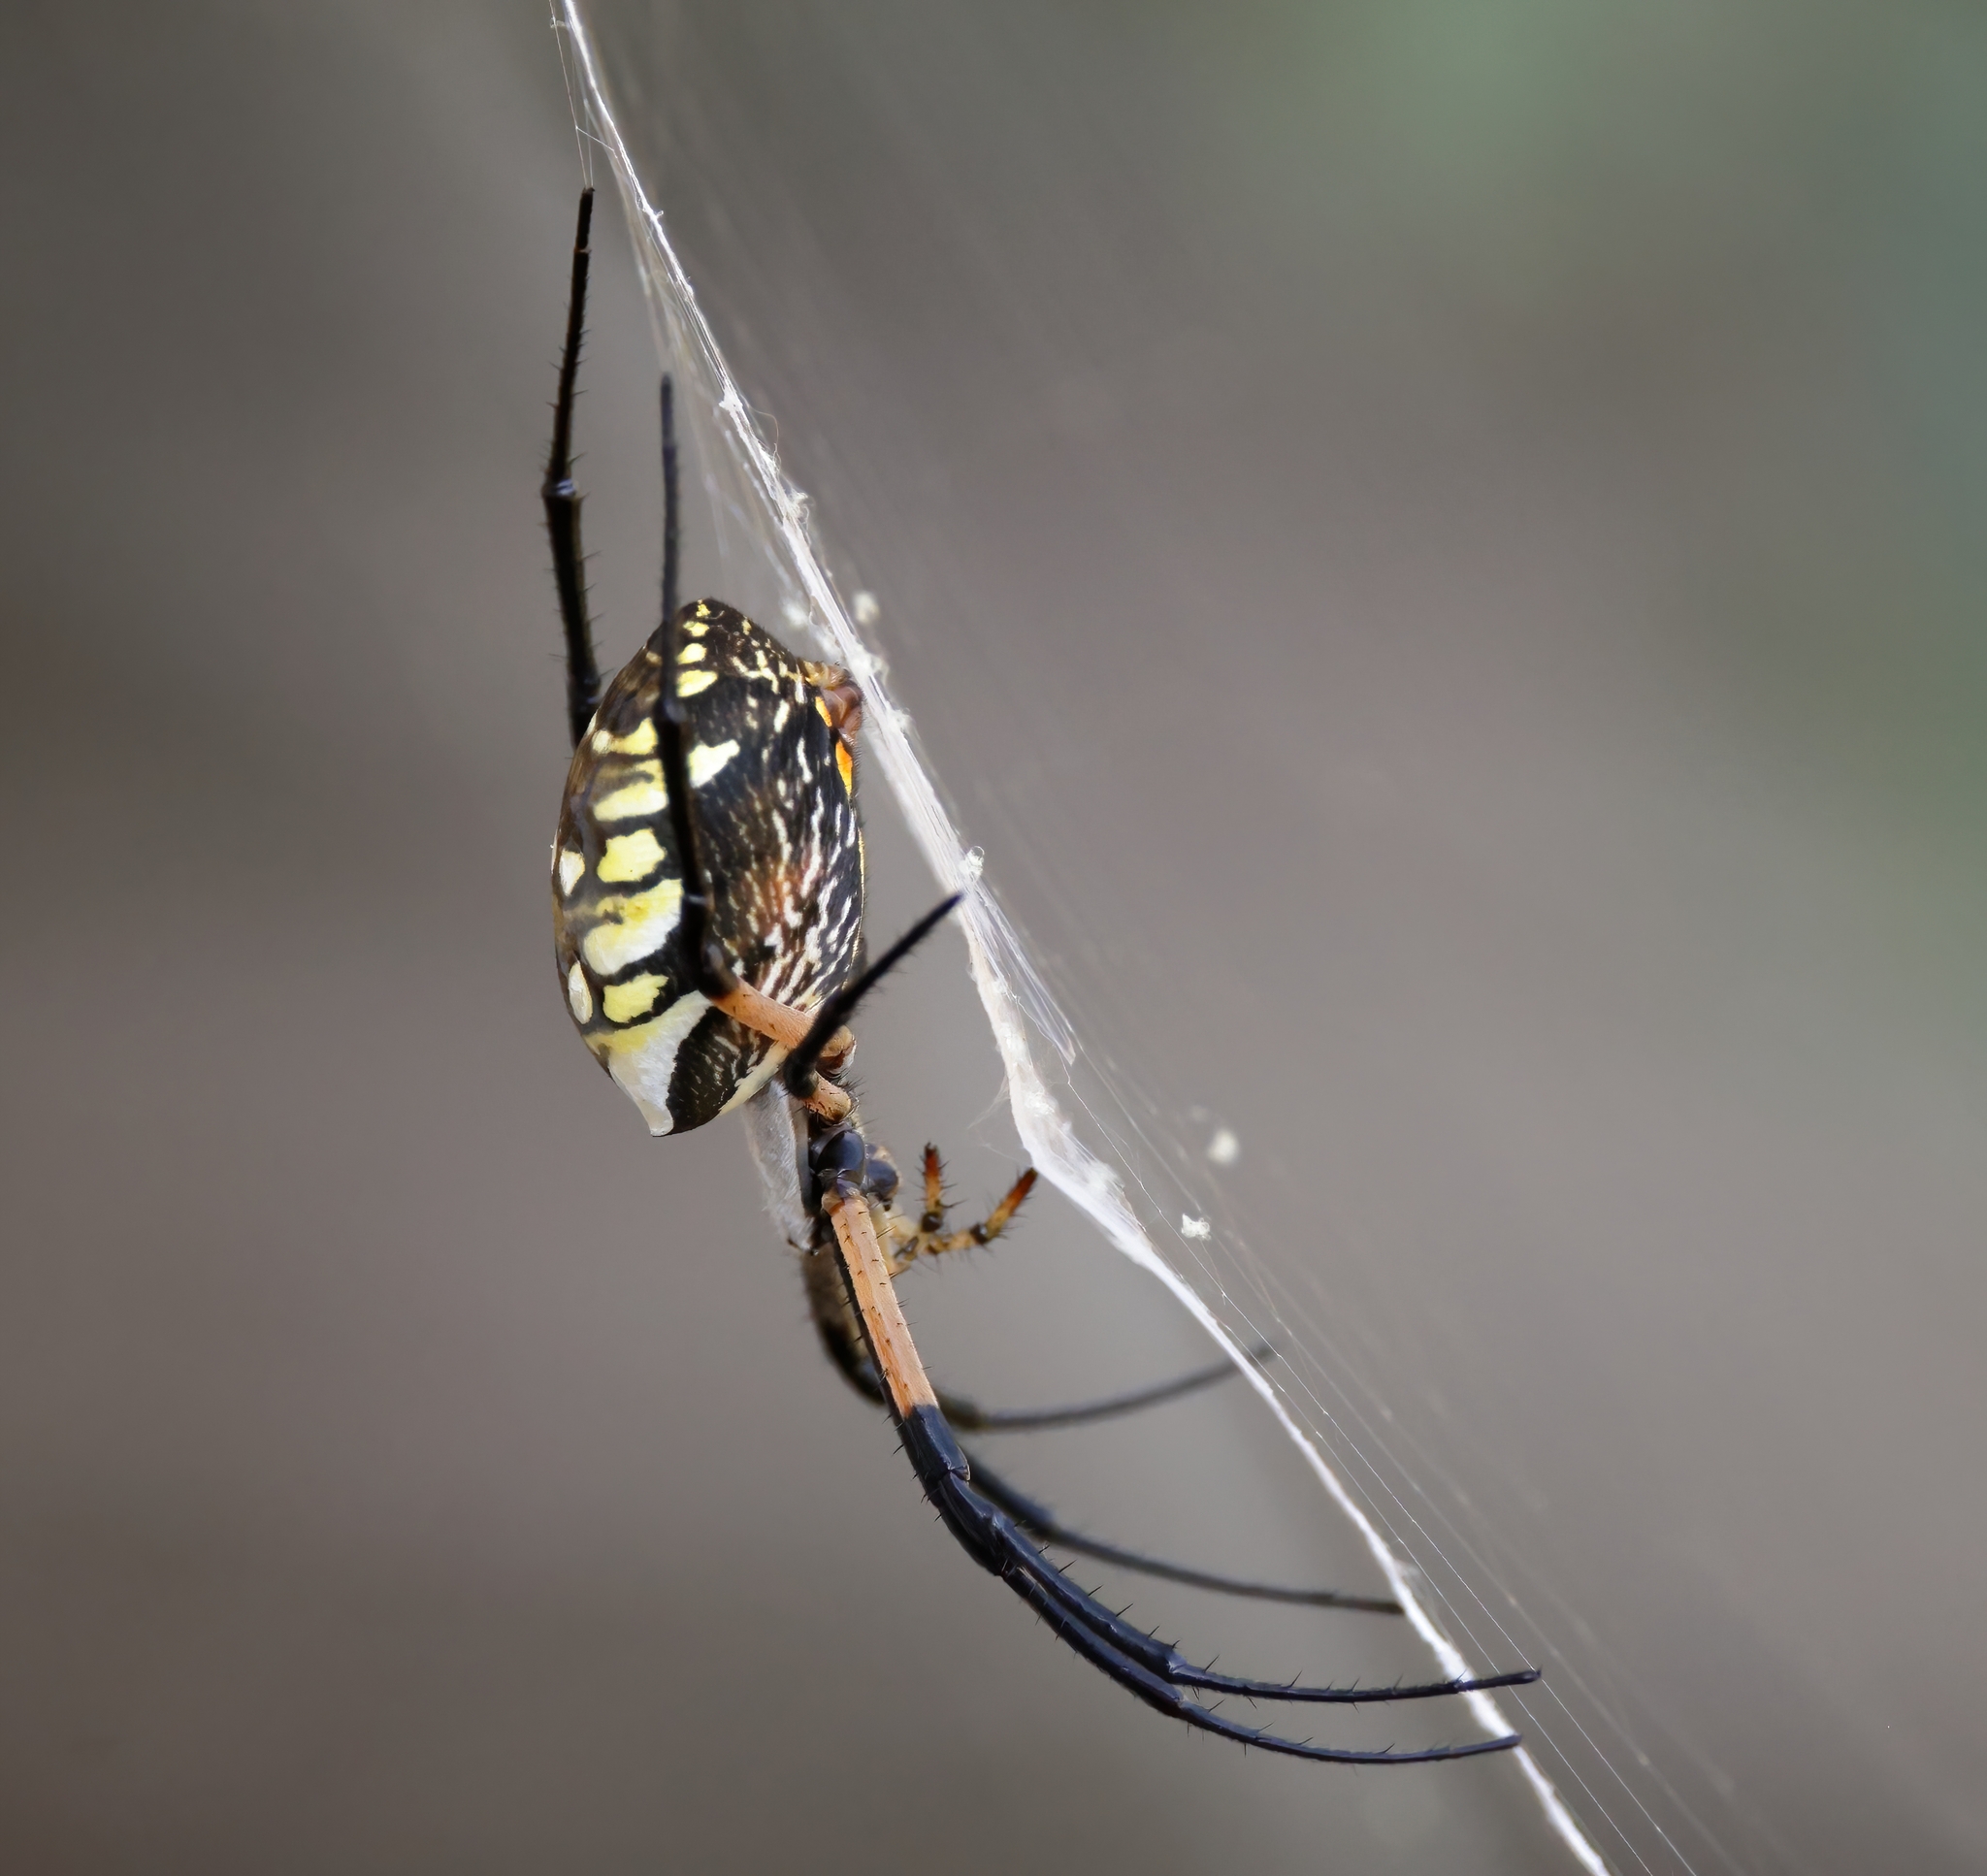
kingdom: Animalia
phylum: Arthropoda
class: Arachnida
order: Araneae
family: Araneidae
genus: Argiope
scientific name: Argiope aurantia
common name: Orb weavers
